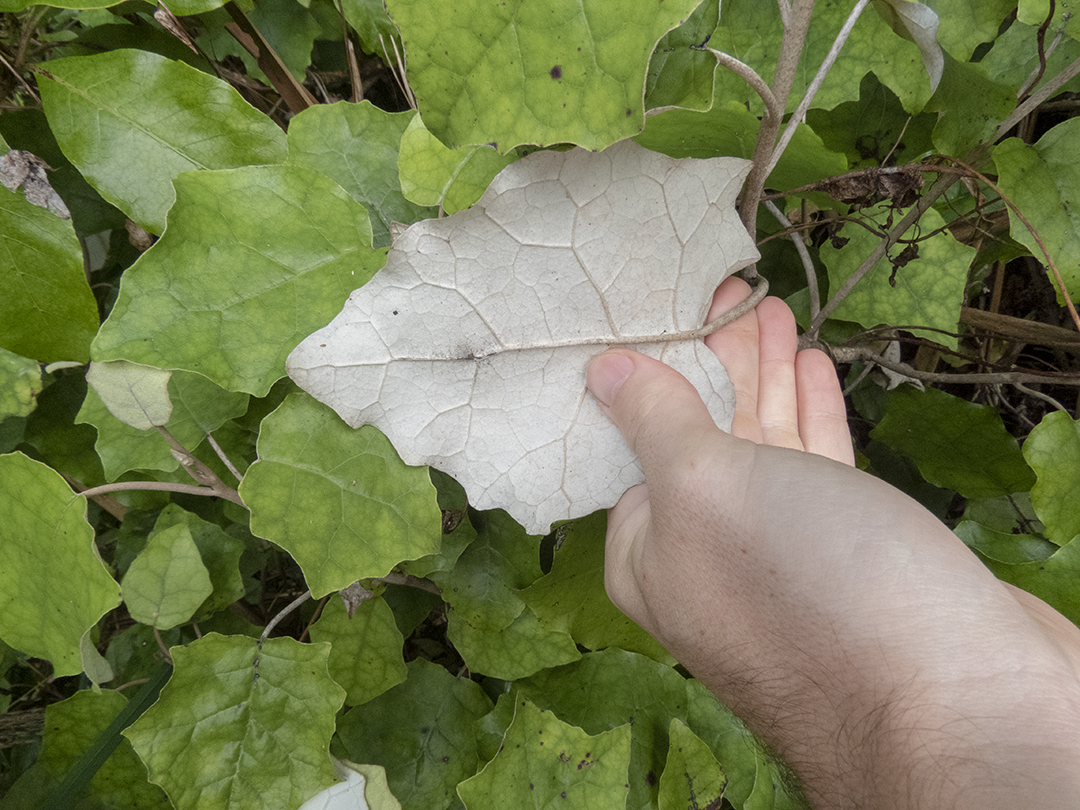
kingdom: Plantae
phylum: Tracheophyta
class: Magnoliopsida
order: Asterales
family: Asteraceae
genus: Brachyglottis
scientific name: Brachyglottis repanda
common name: Hedge ragwort
